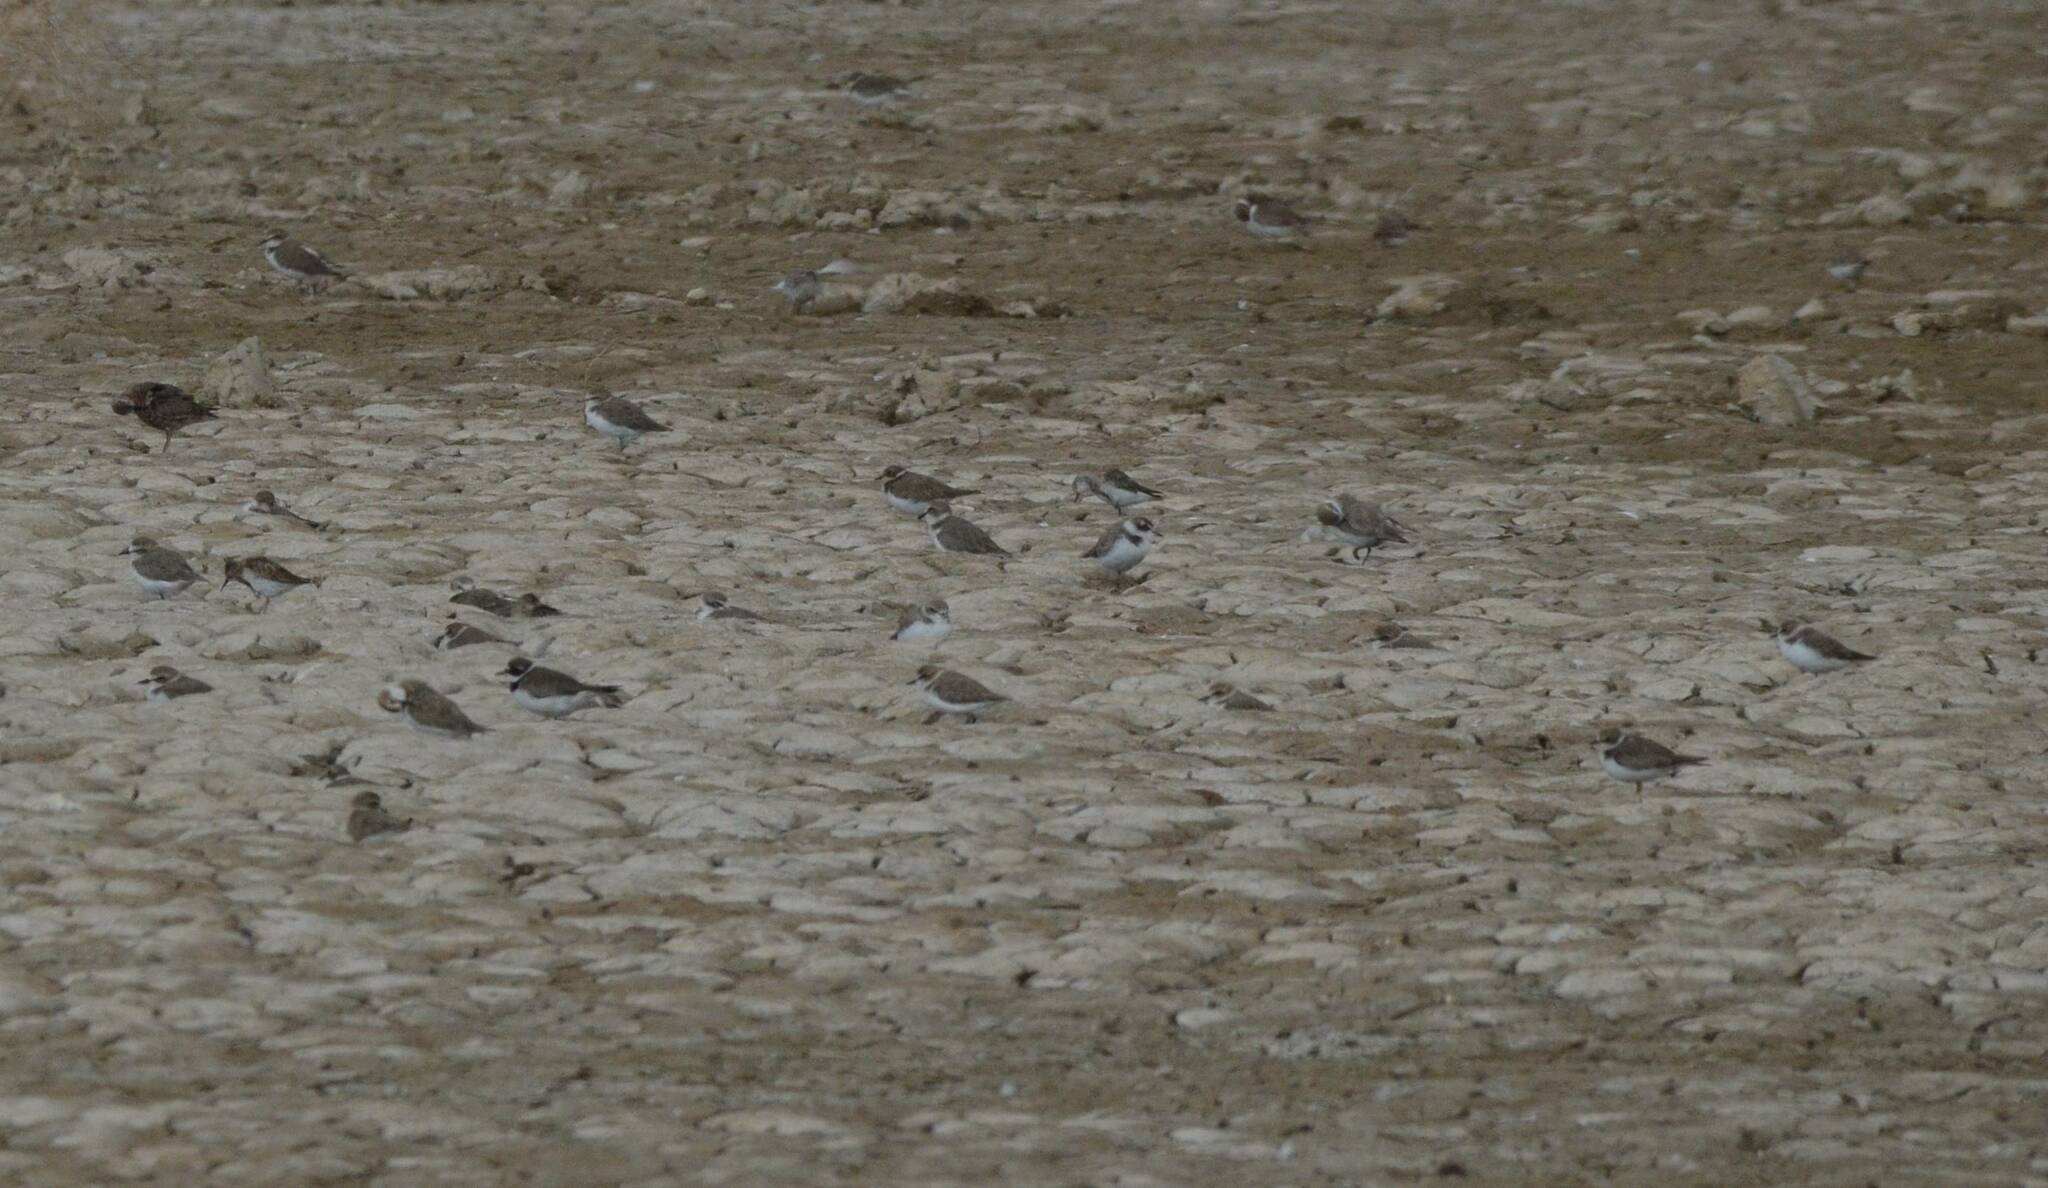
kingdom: Animalia
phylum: Chordata
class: Aves
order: Charadriiformes
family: Charadriidae
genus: Charadrius
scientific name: Charadrius alexandrinus
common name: Kentish plover
